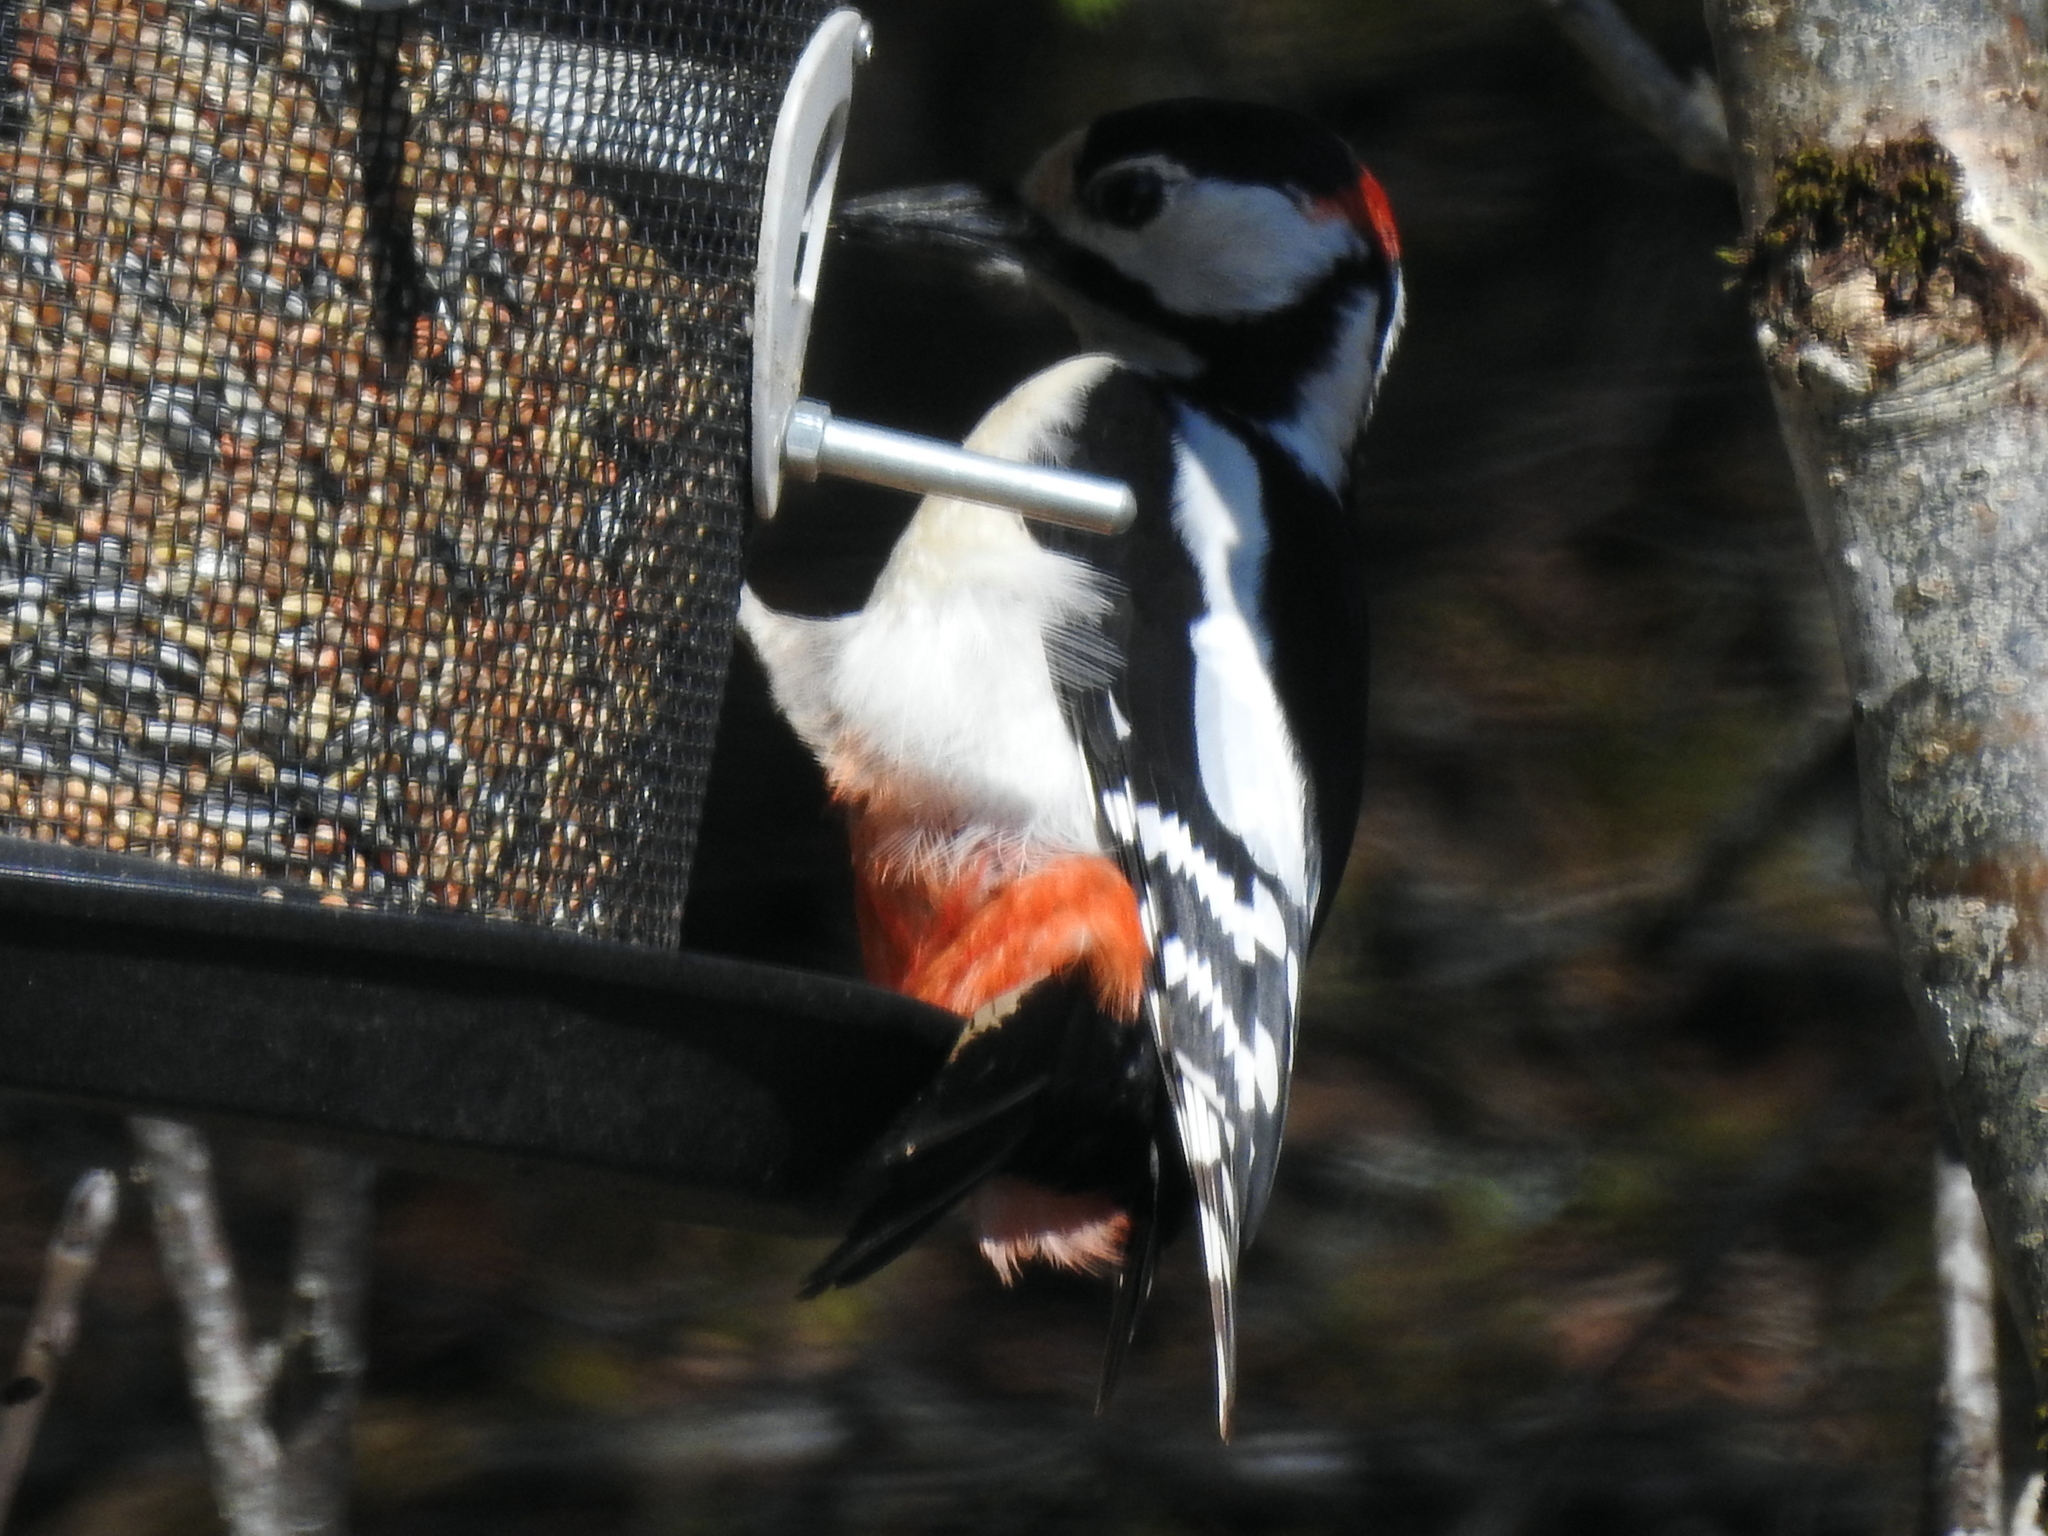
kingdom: Animalia
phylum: Chordata
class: Aves
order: Piciformes
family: Picidae
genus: Dendrocopos
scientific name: Dendrocopos major
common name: Great spotted woodpecker
